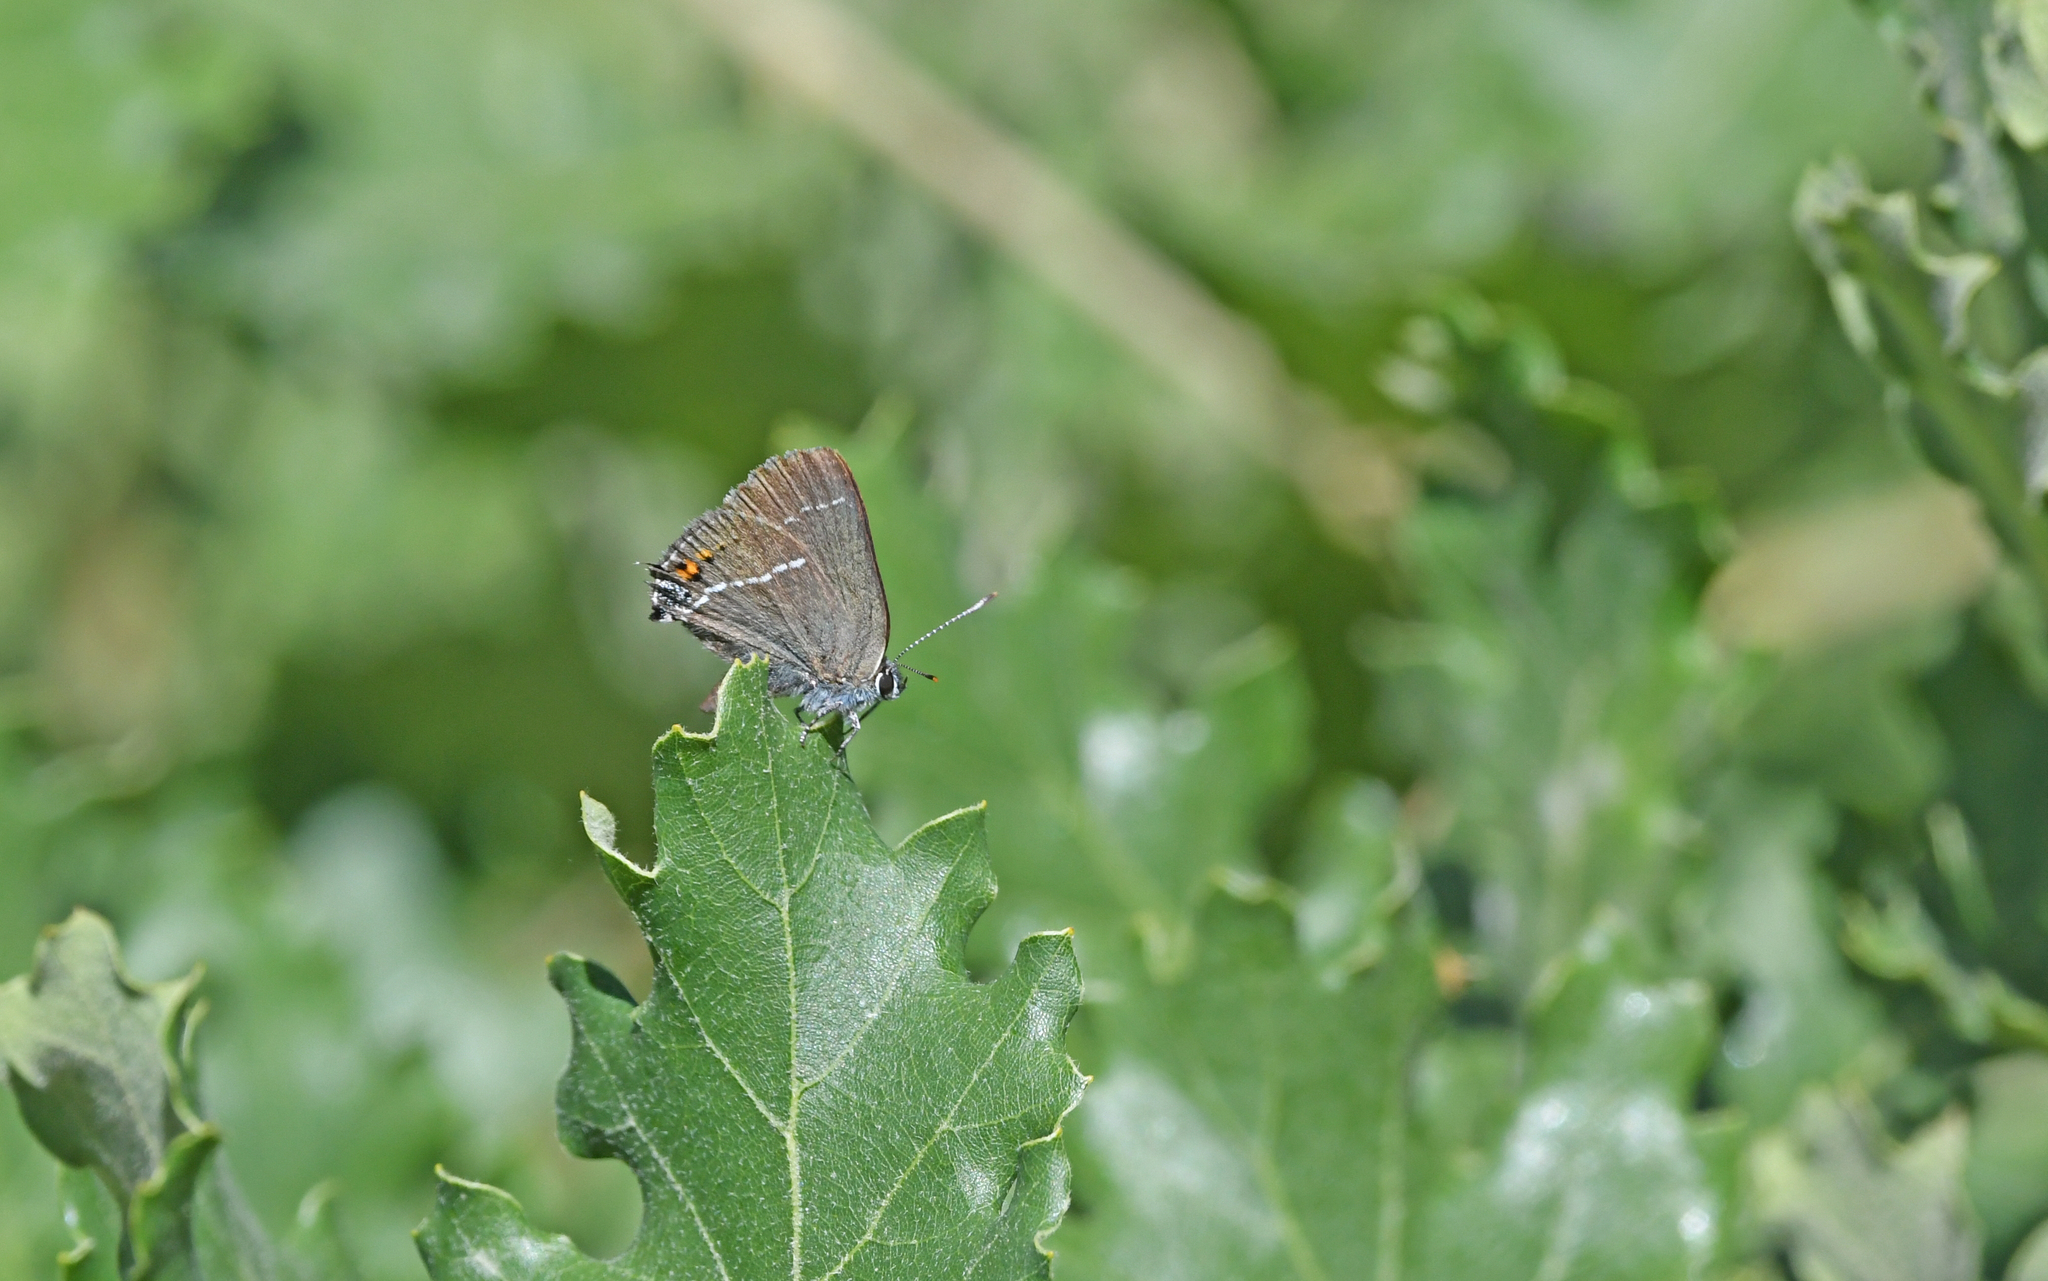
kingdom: Animalia
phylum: Arthropoda
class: Insecta
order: Lepidoptera
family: Lycaenidae
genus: Tuttiola
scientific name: Tuttiola spini
